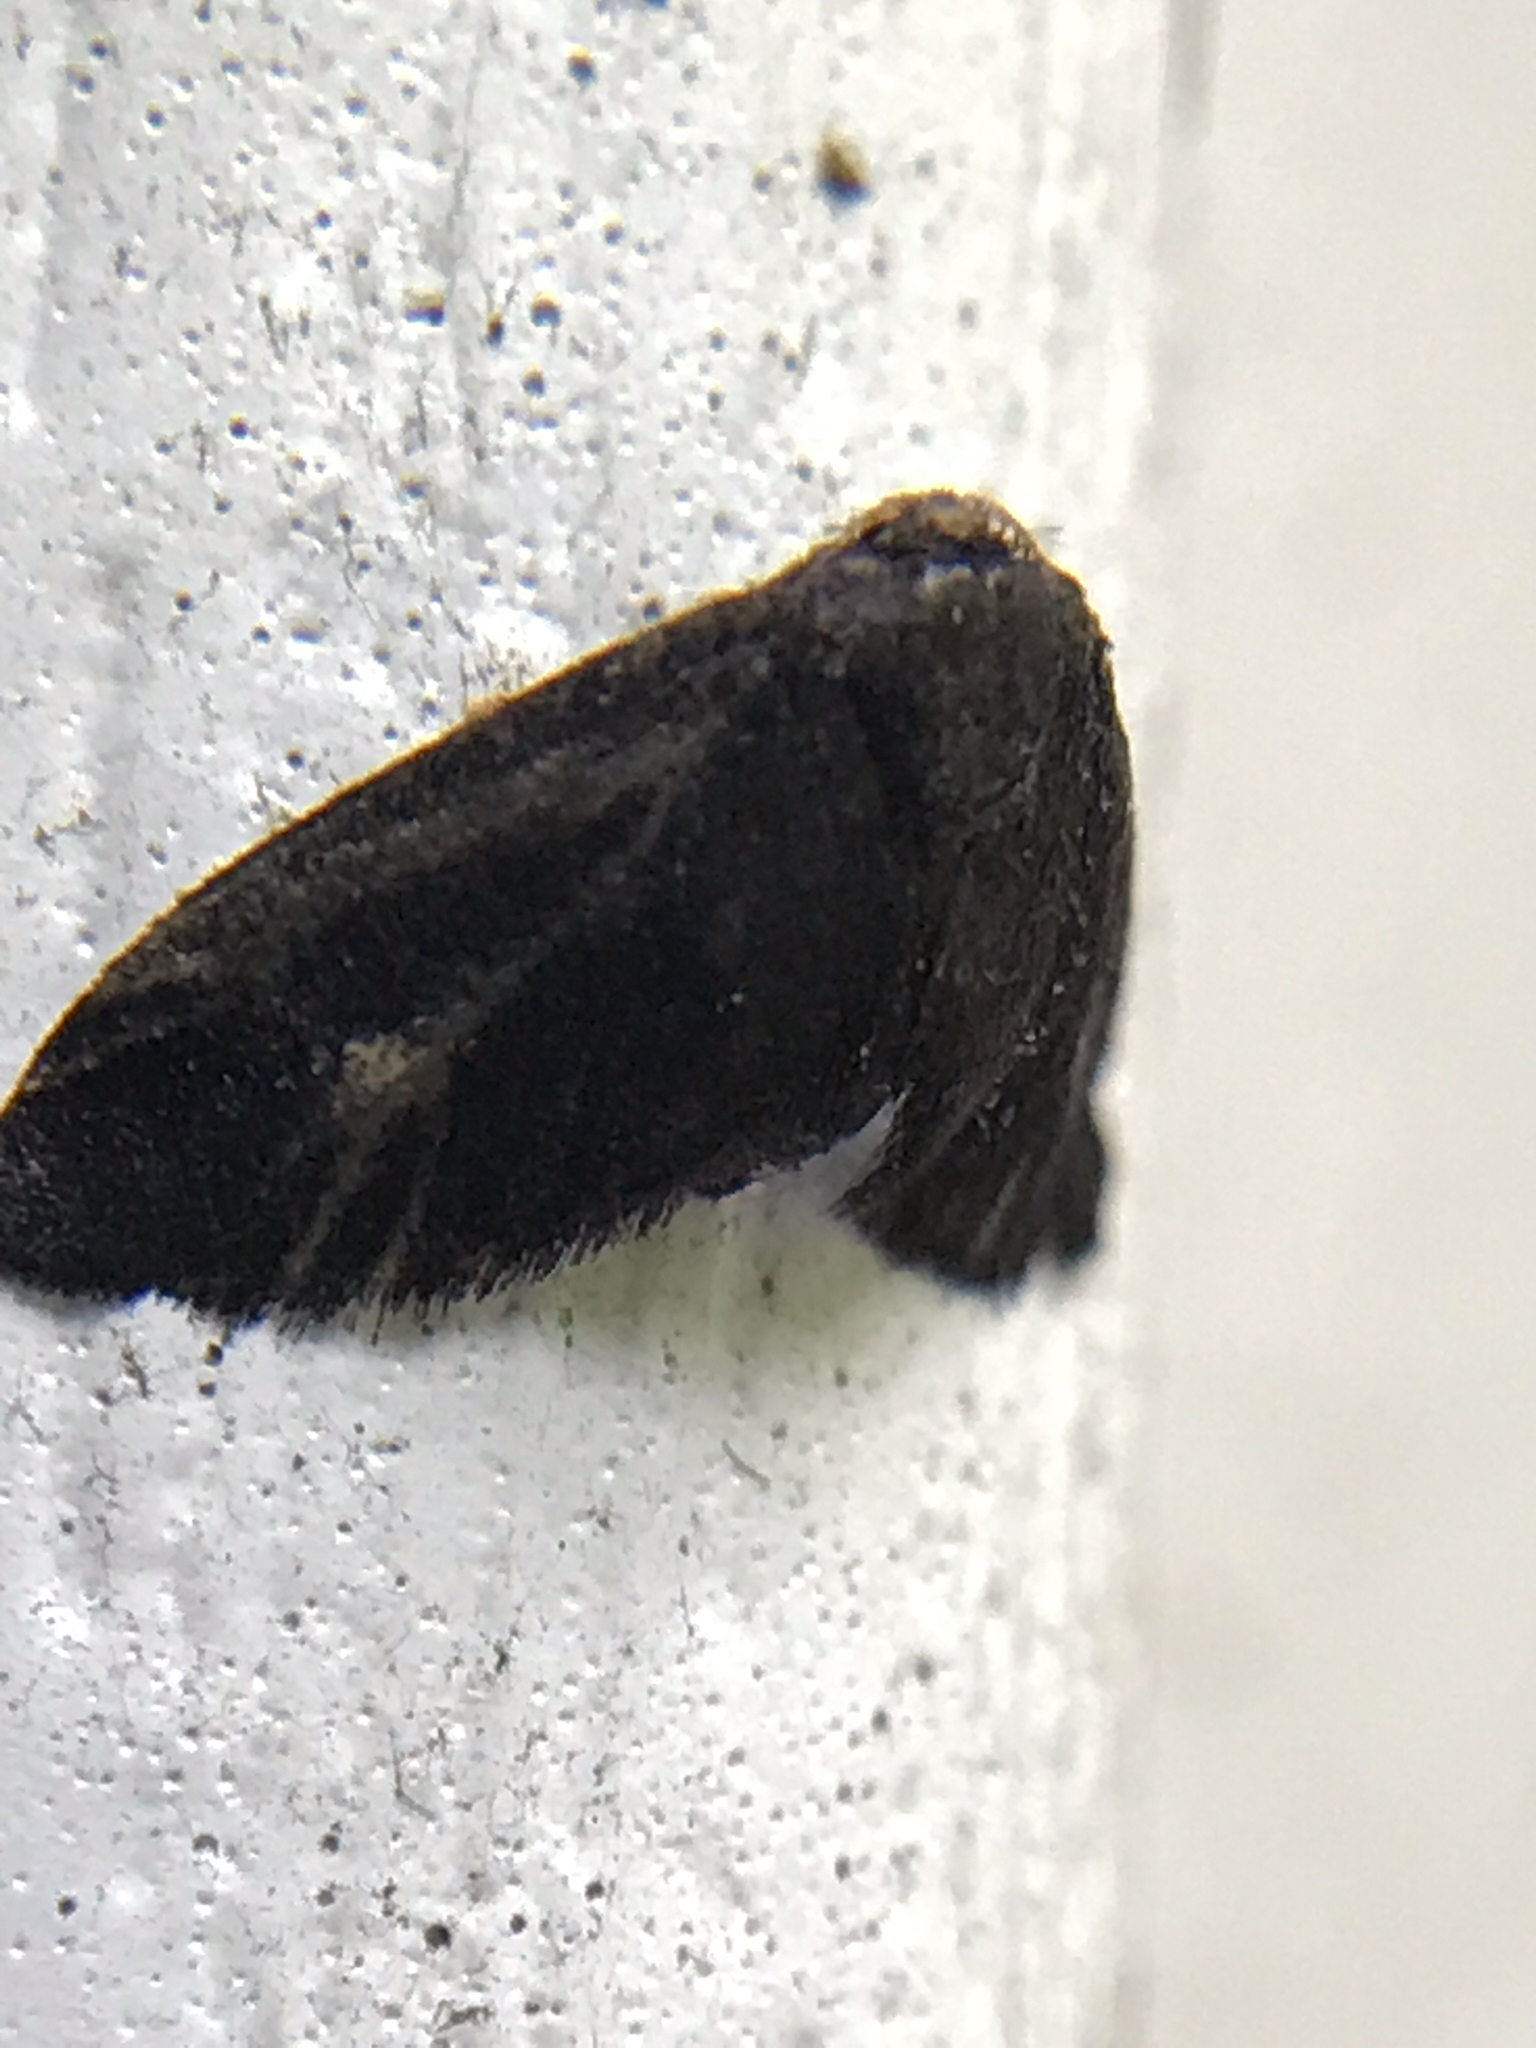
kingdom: Animalia
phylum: Arthropoda
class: Insecta
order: Lepidoptera
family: Epipyropidae
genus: Fulgoraecia
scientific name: Fulgoraecia exigua
